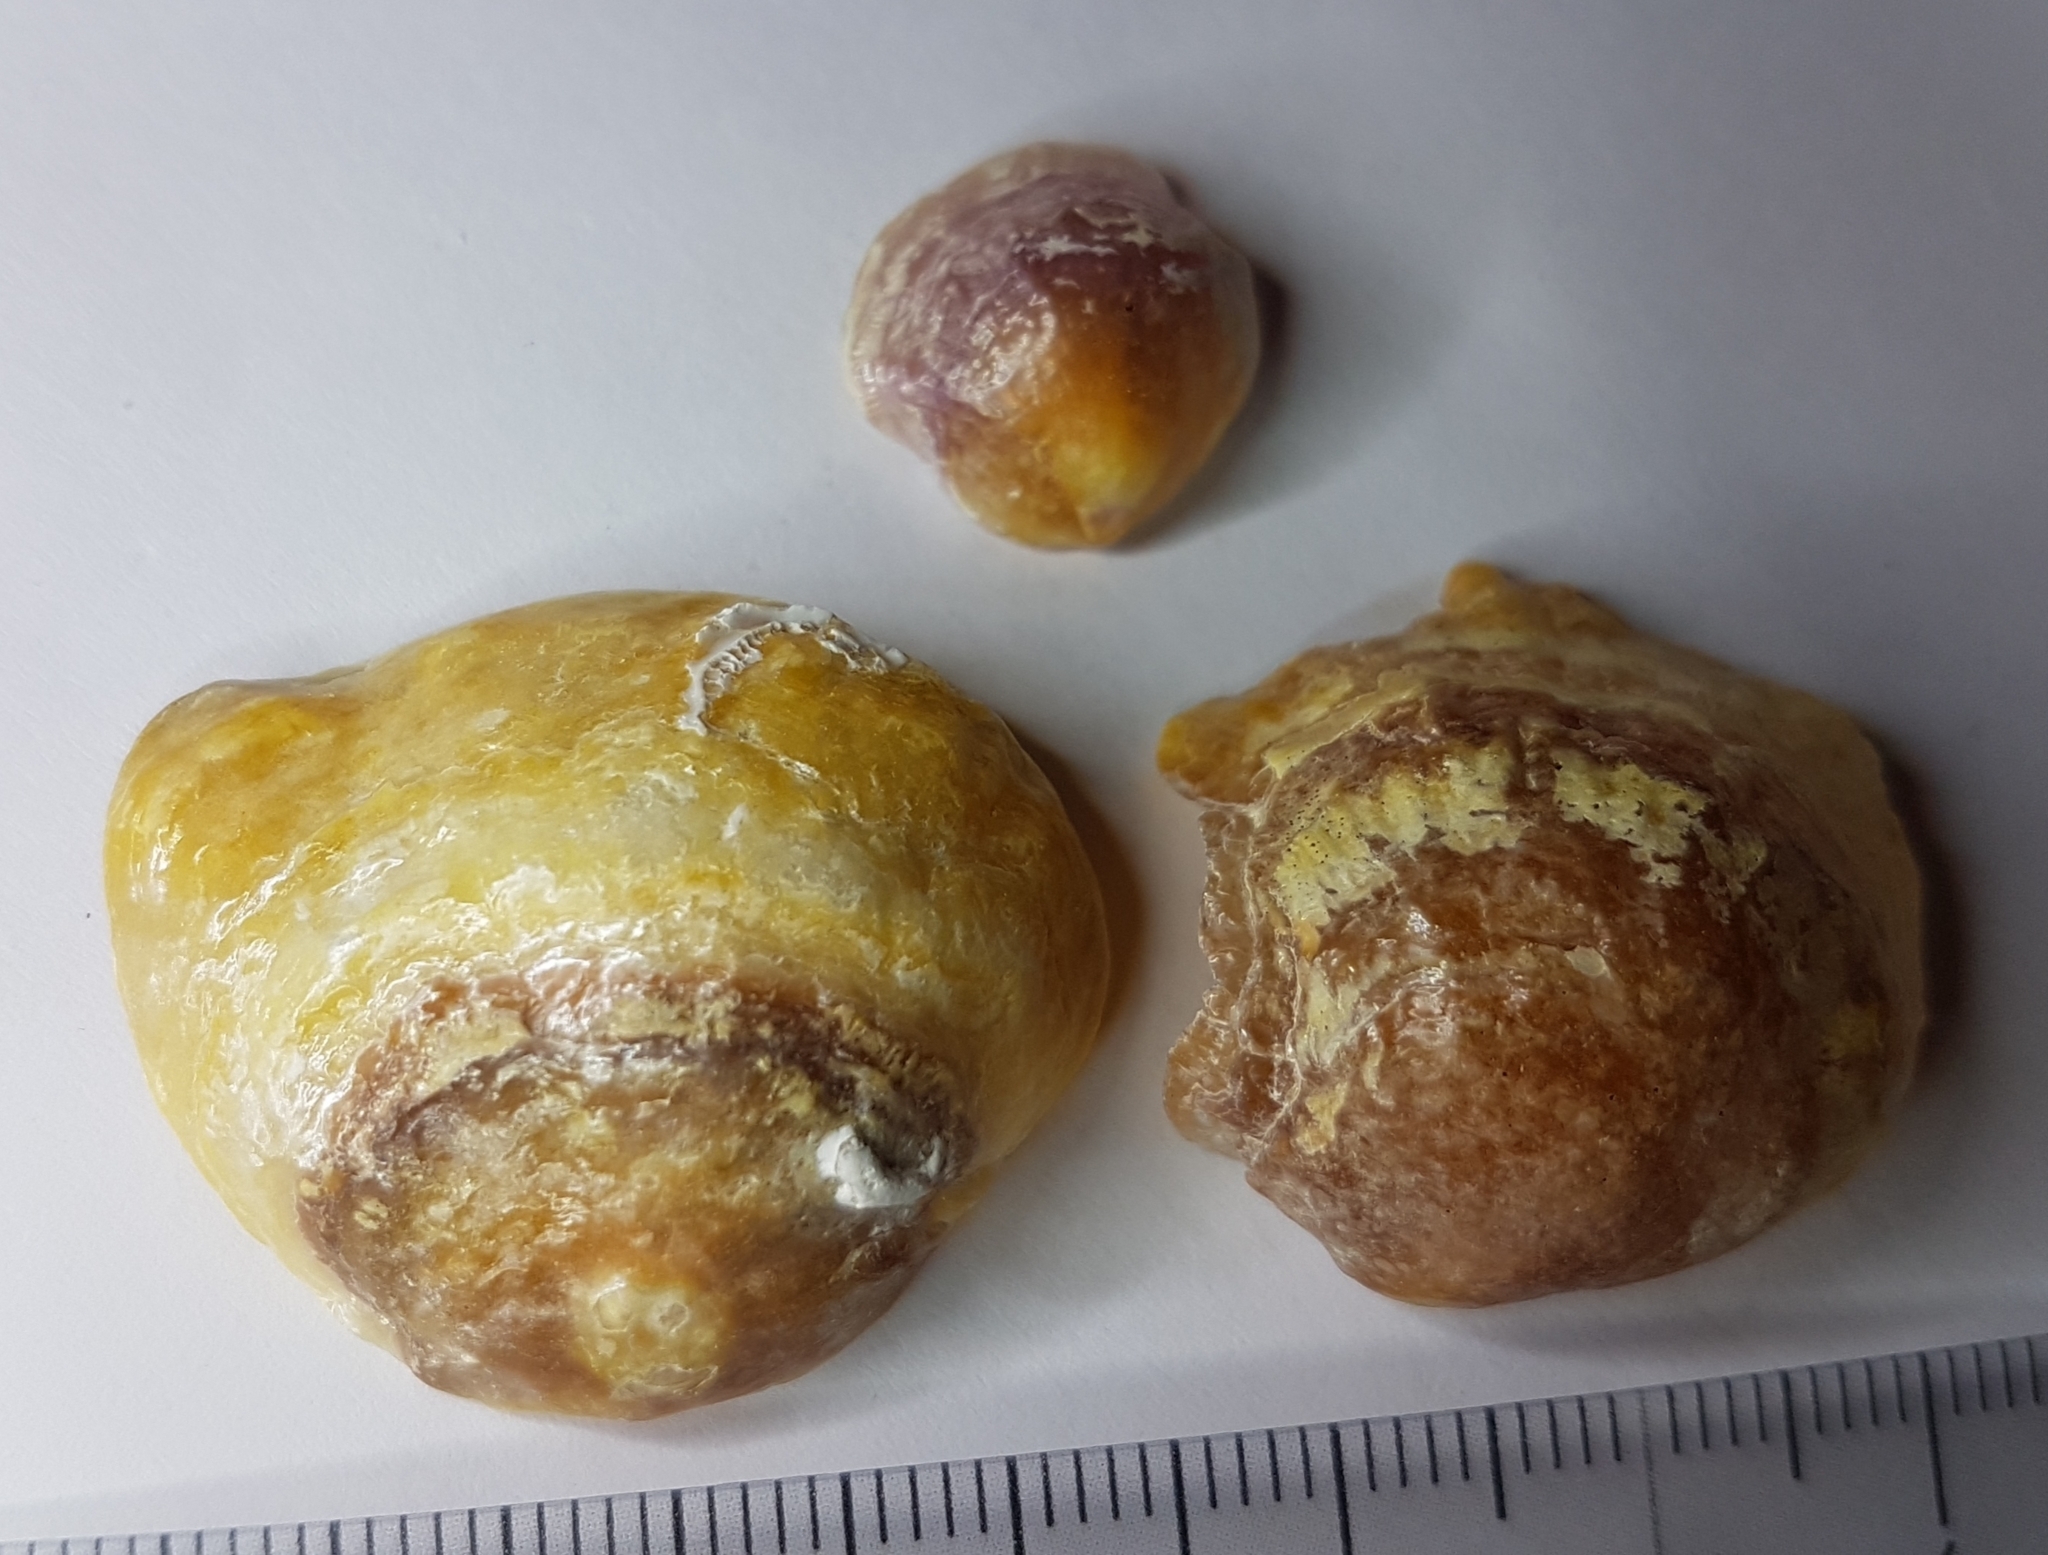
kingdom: Animalia
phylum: Mollusca
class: Bivalvia
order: Pectinida
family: Anomiidae
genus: Anomia
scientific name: Anomia ephippium
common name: Saddle oyster
